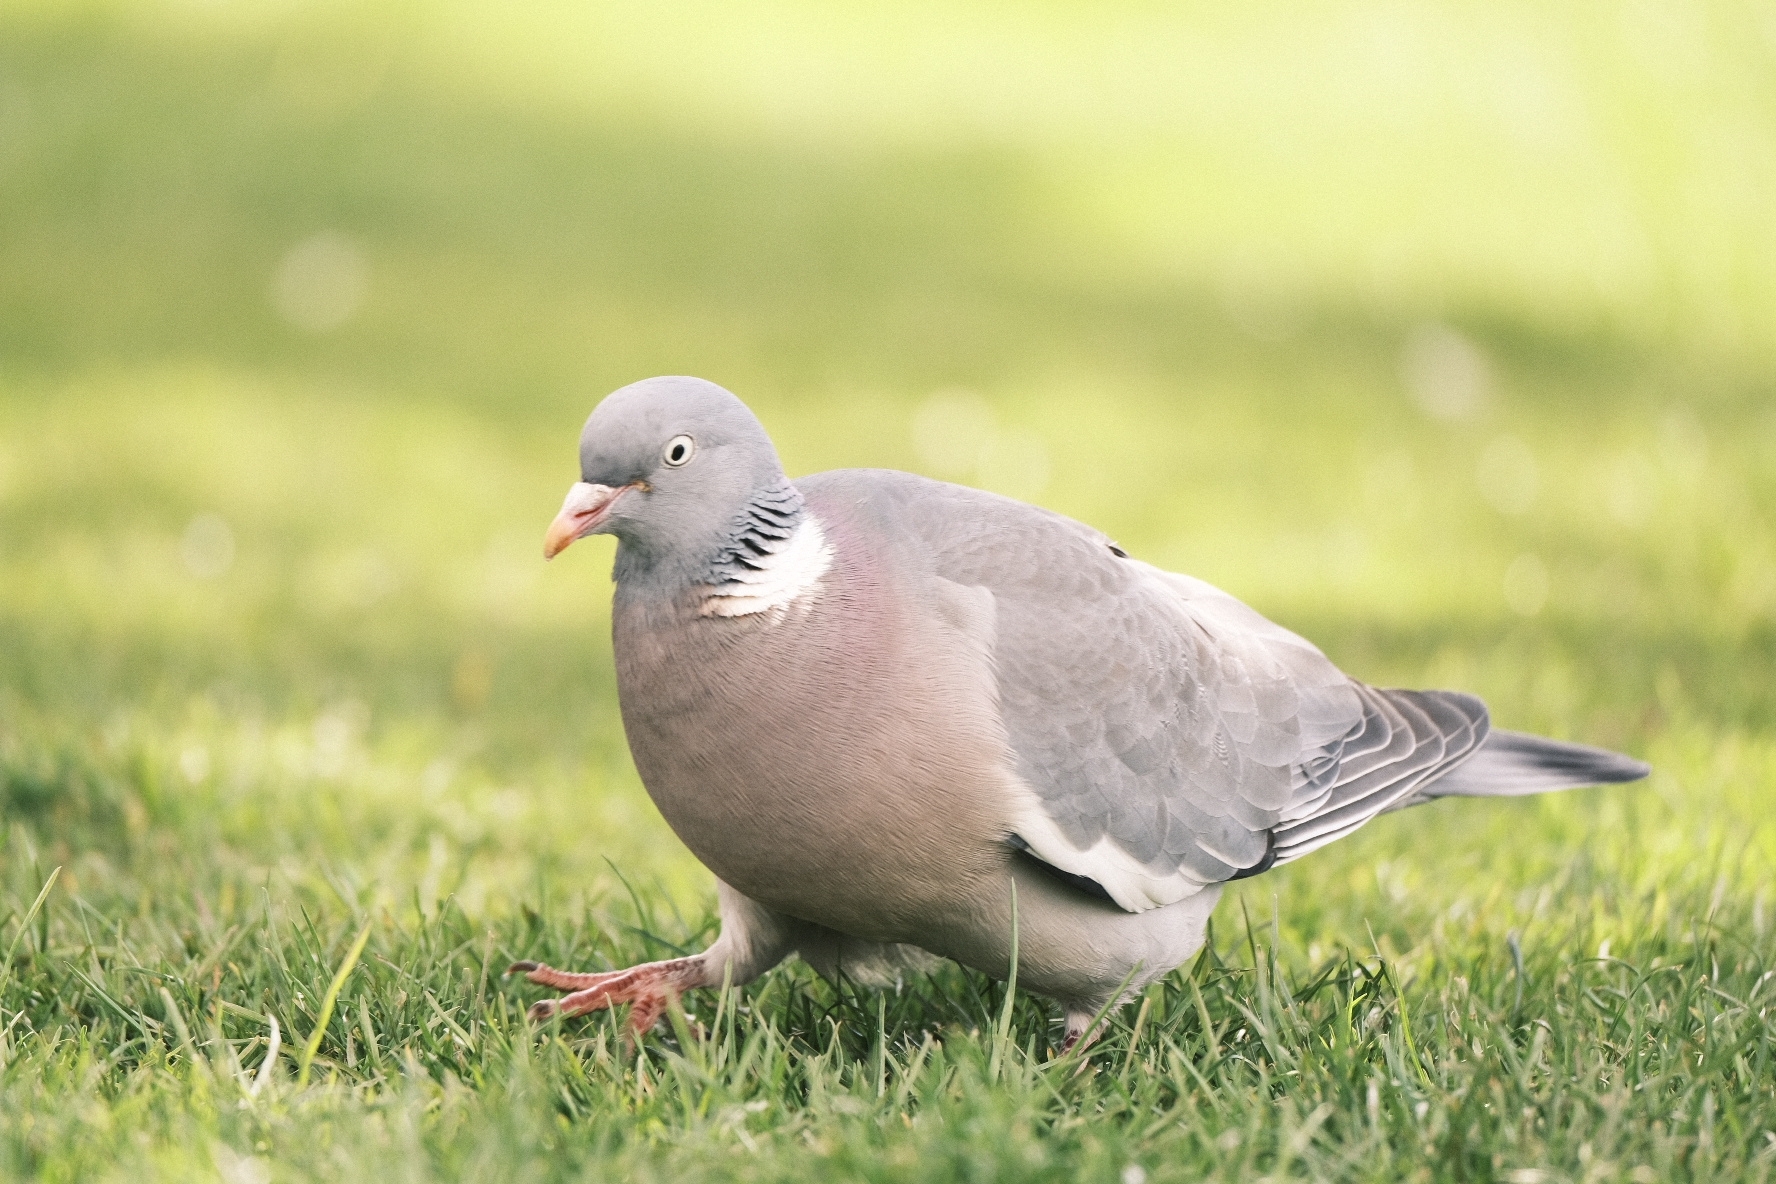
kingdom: Animalia
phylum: Chordata
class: Aves
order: Columbiformes
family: Columbidae
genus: Columba
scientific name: Columba palumbus
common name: Common wood pigeon
